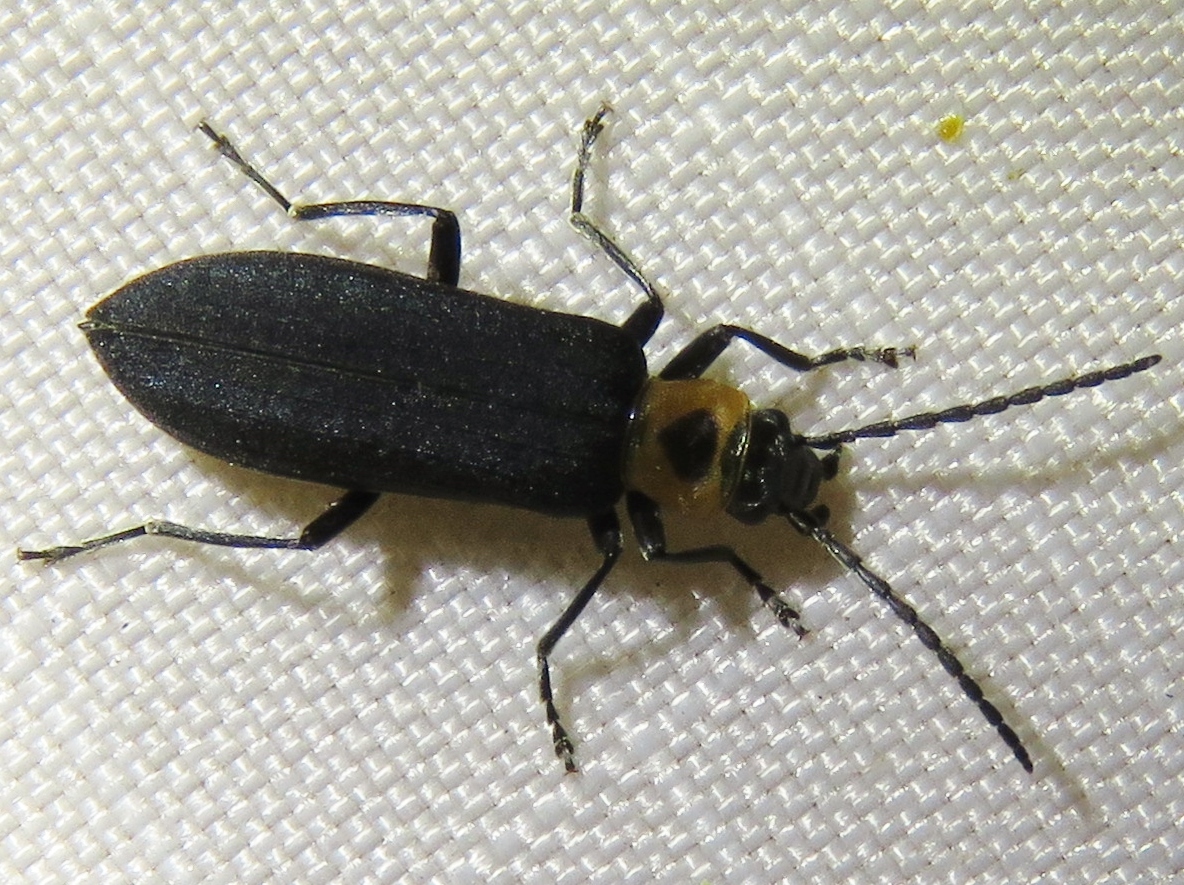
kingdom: Animalia
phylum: Arthropoda
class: Insecta
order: Coleoptera
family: Oedemeridae
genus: Ischnomera
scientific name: Ischnomera
